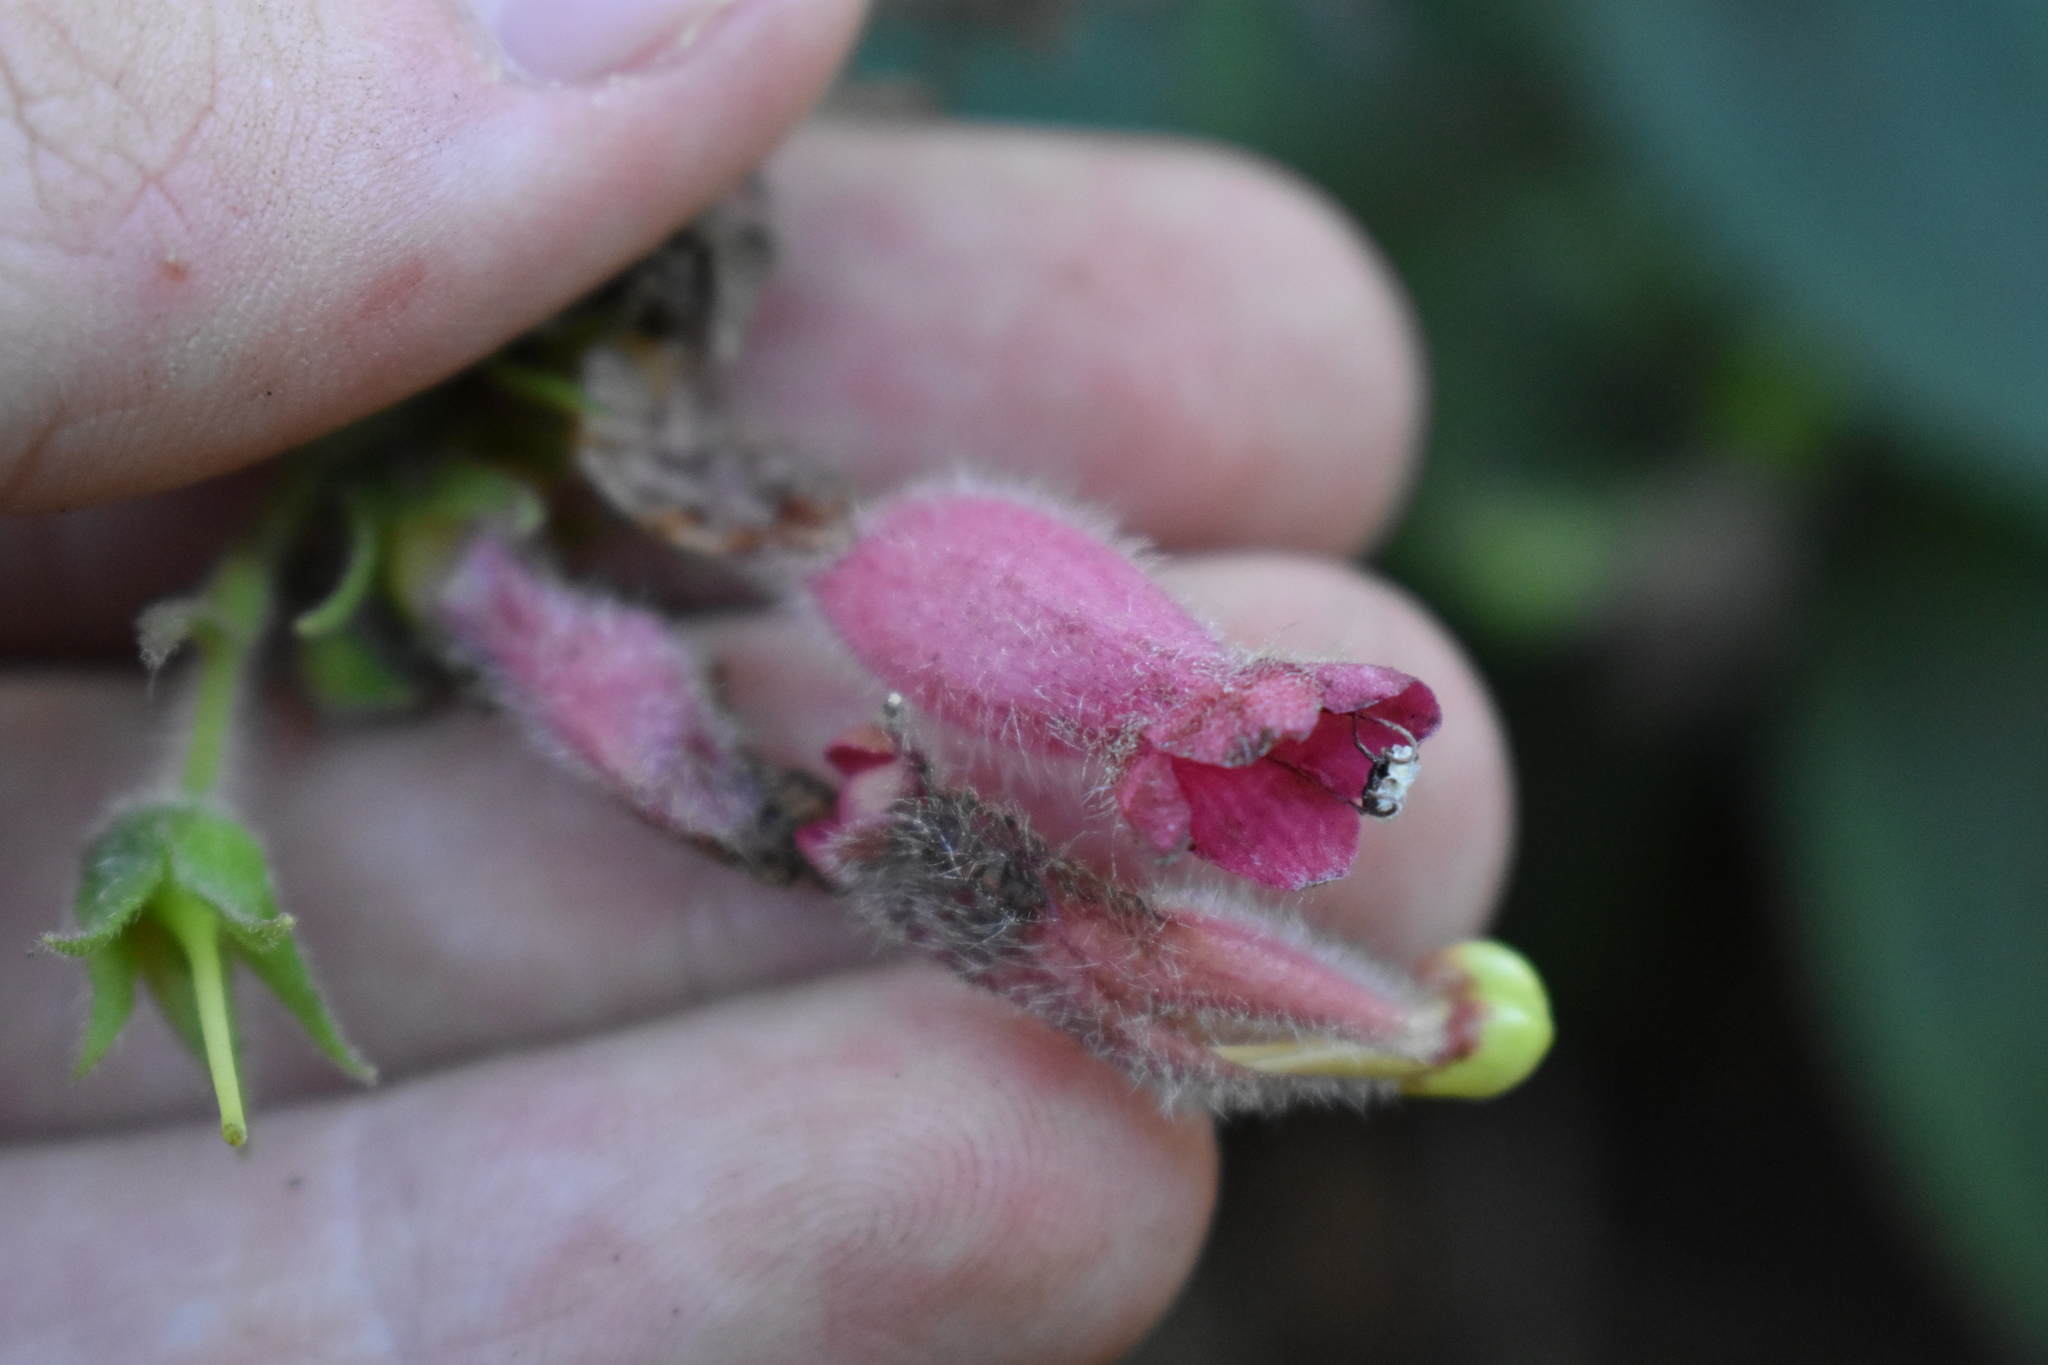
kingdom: Plantae
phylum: Tracheophyta
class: Magnoliopsida
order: Lamiales
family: Gesneriaceae
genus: Sinningia
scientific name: Sinningia sellovii
